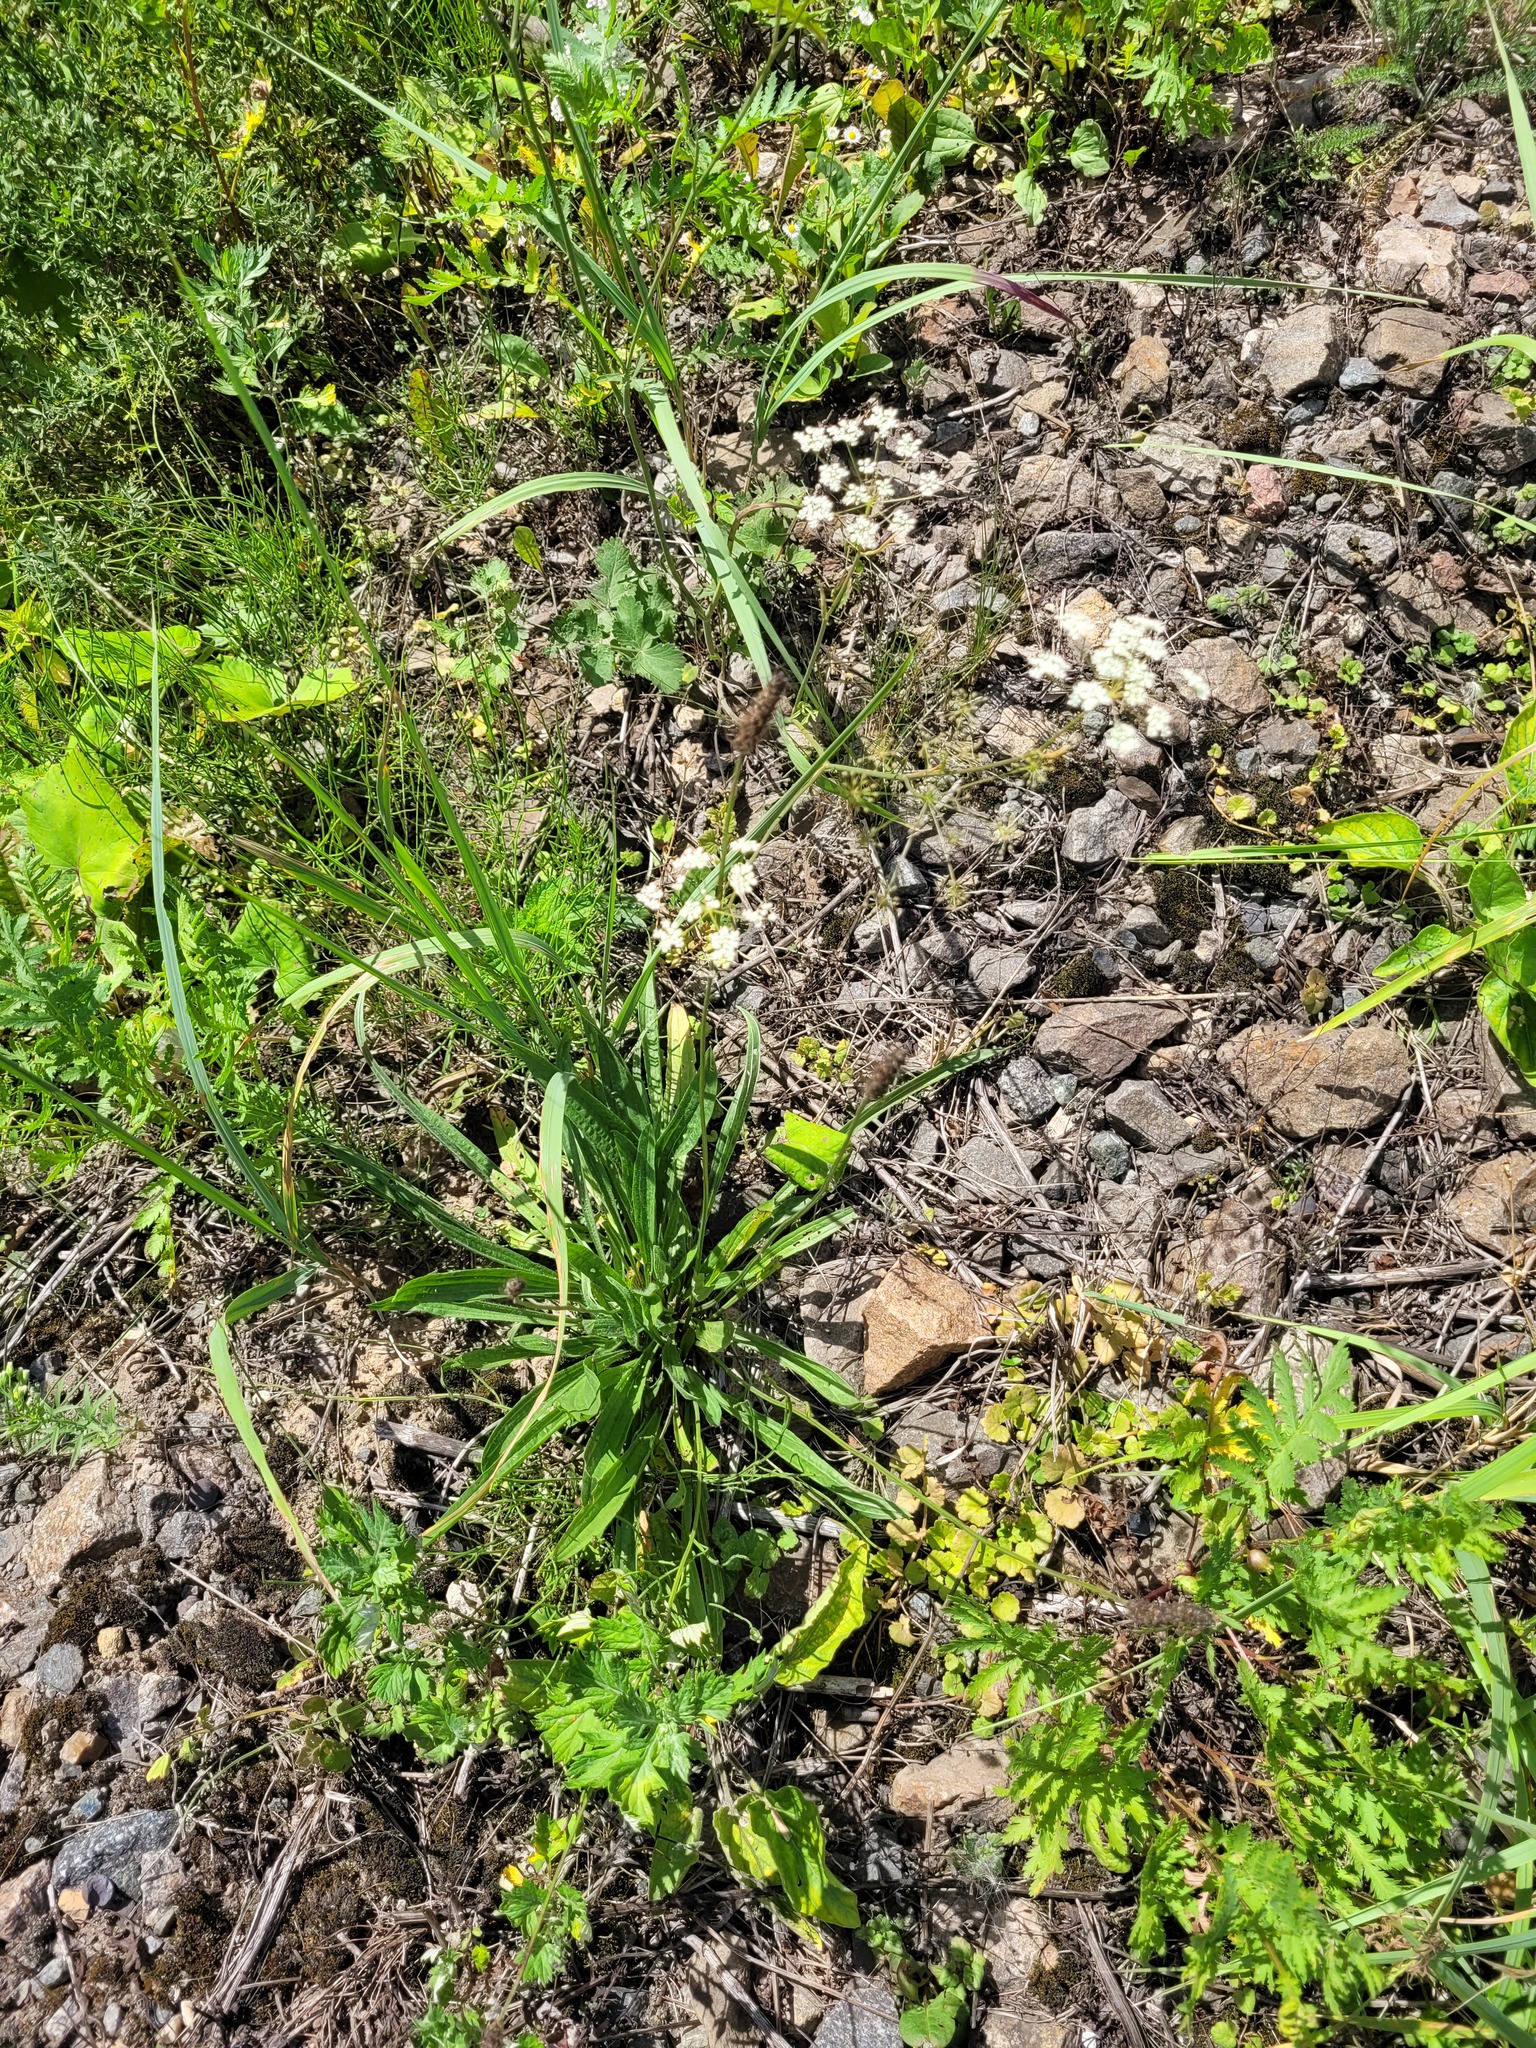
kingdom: Plantae
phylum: Tracheophyta
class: Magnoliopsida
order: Lamiales
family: Plantaginaceae
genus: Plantago
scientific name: Plantago lanceolata
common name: Ribwort plantain
